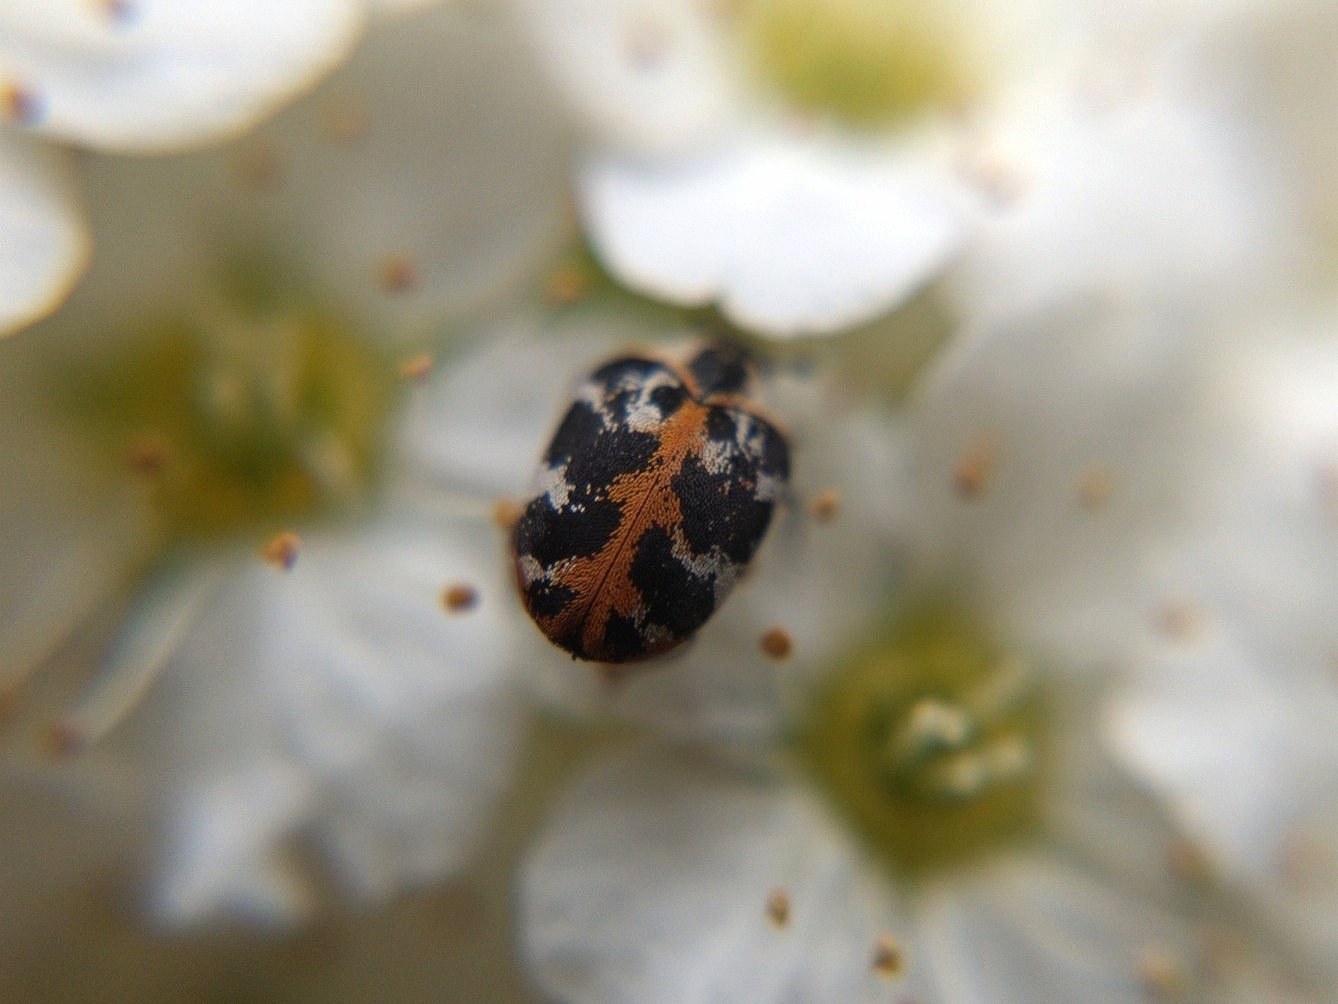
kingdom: Animalia
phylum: Arthropoda
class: Insecta
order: Coleoptera
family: Dermestidae
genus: Anthrenus
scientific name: Anthrenus scrophulariae
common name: Buffalo carpet beetle
